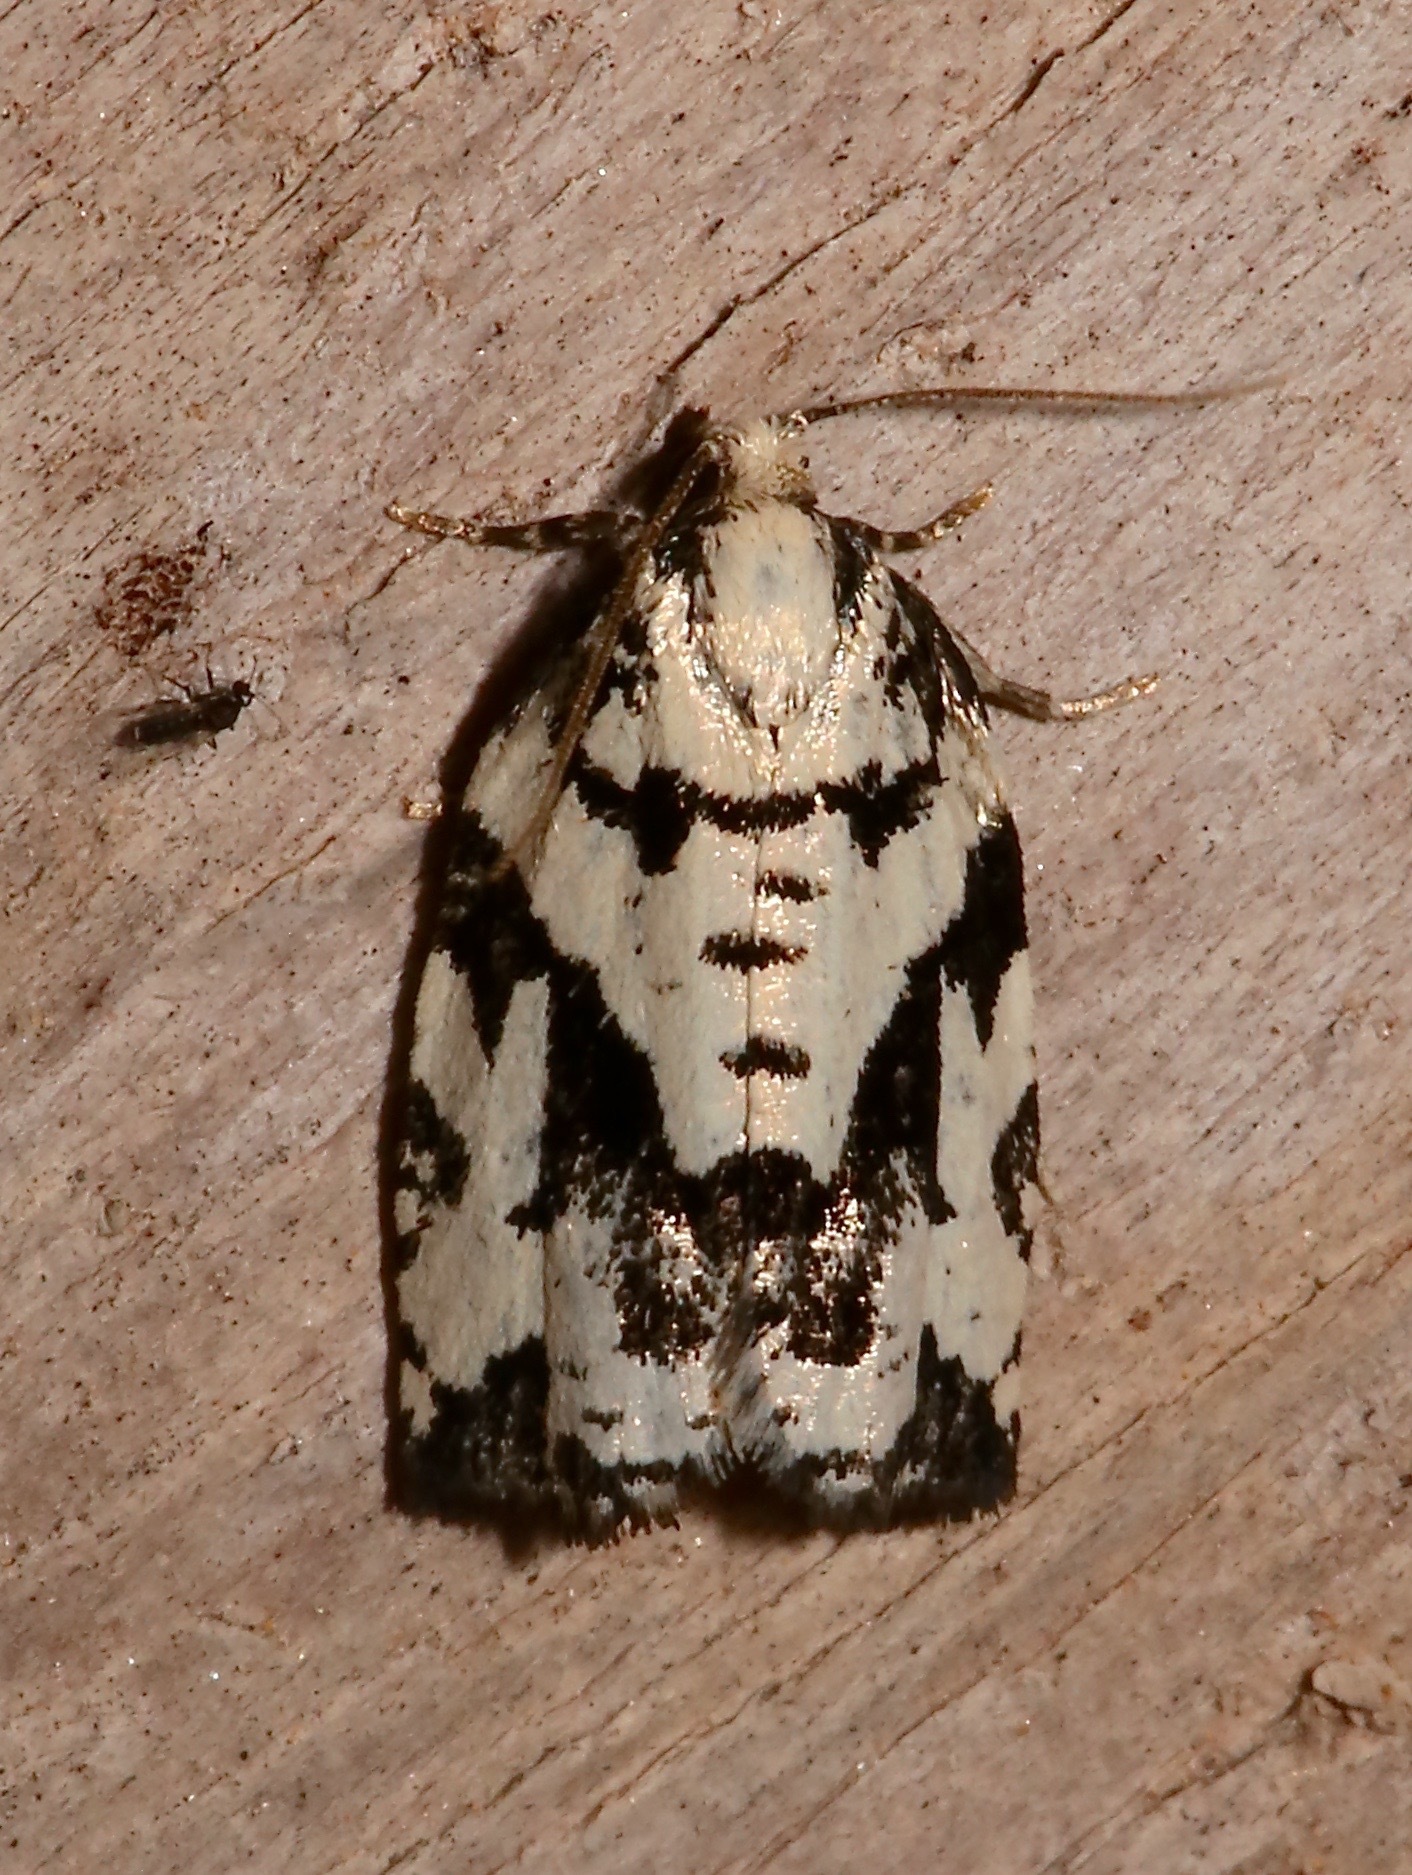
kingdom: Animalia
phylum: Arthropoda
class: Insecta
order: Lepidoptera
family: Tortricidae
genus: Archips
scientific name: Archips dissitana
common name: Boldly-marked archips moth
